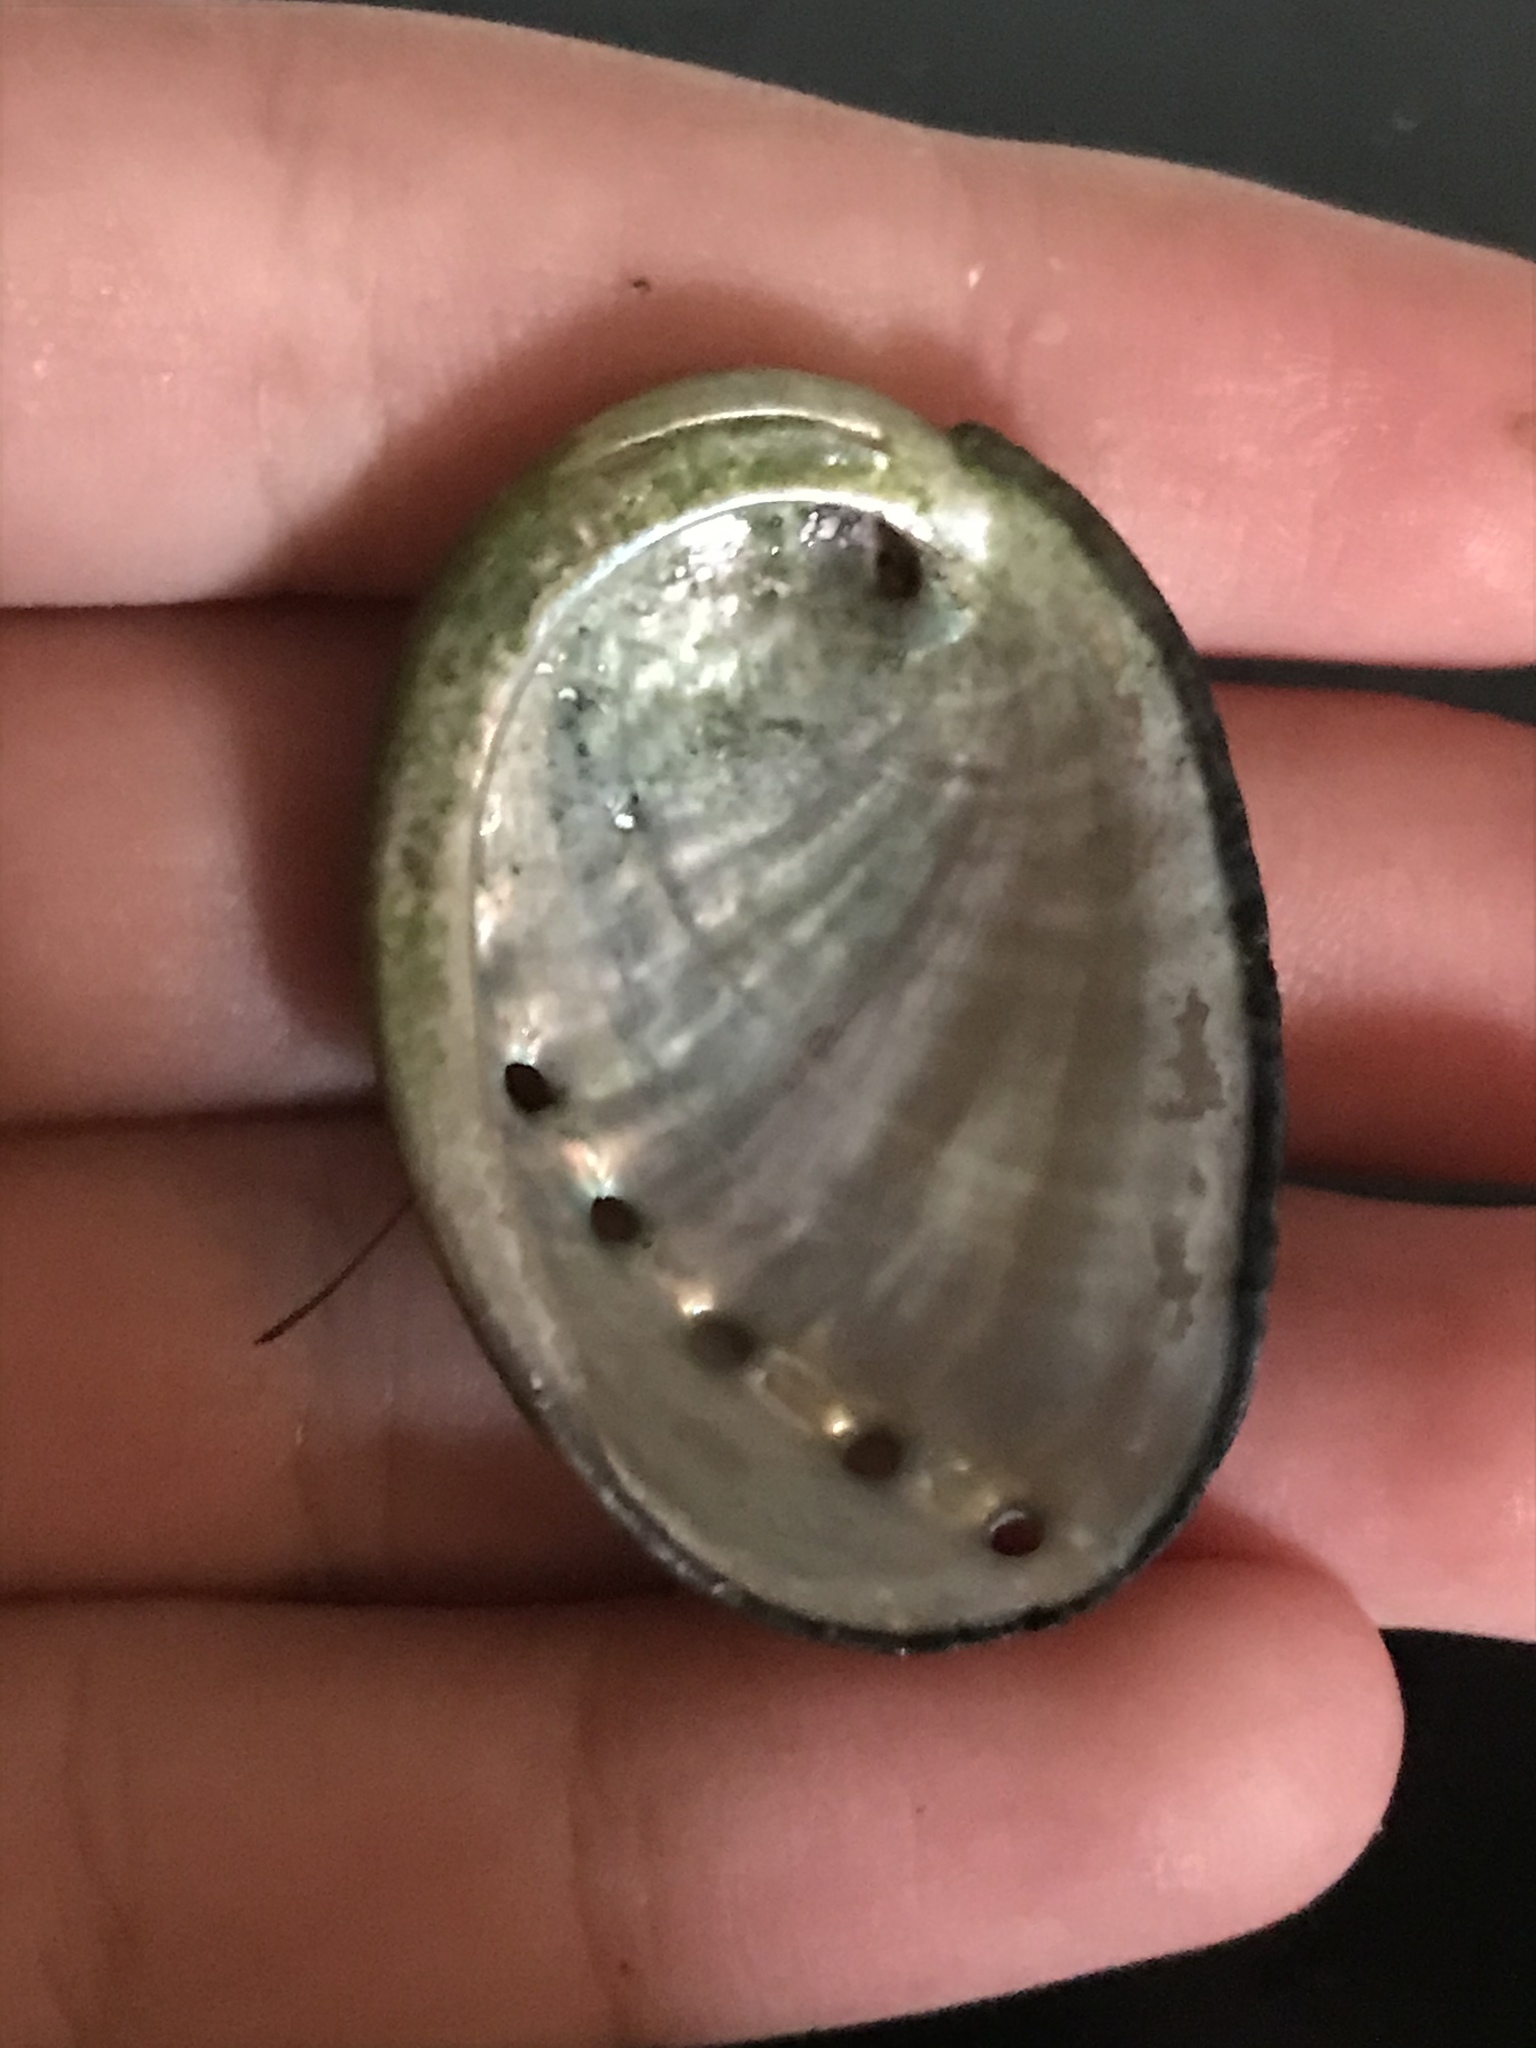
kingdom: Animalia
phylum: Mollusca
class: Gastropoda
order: Lepetellida
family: Haliotidae
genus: Haliotis
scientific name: Haliotis cracherodii
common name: Black abalone
